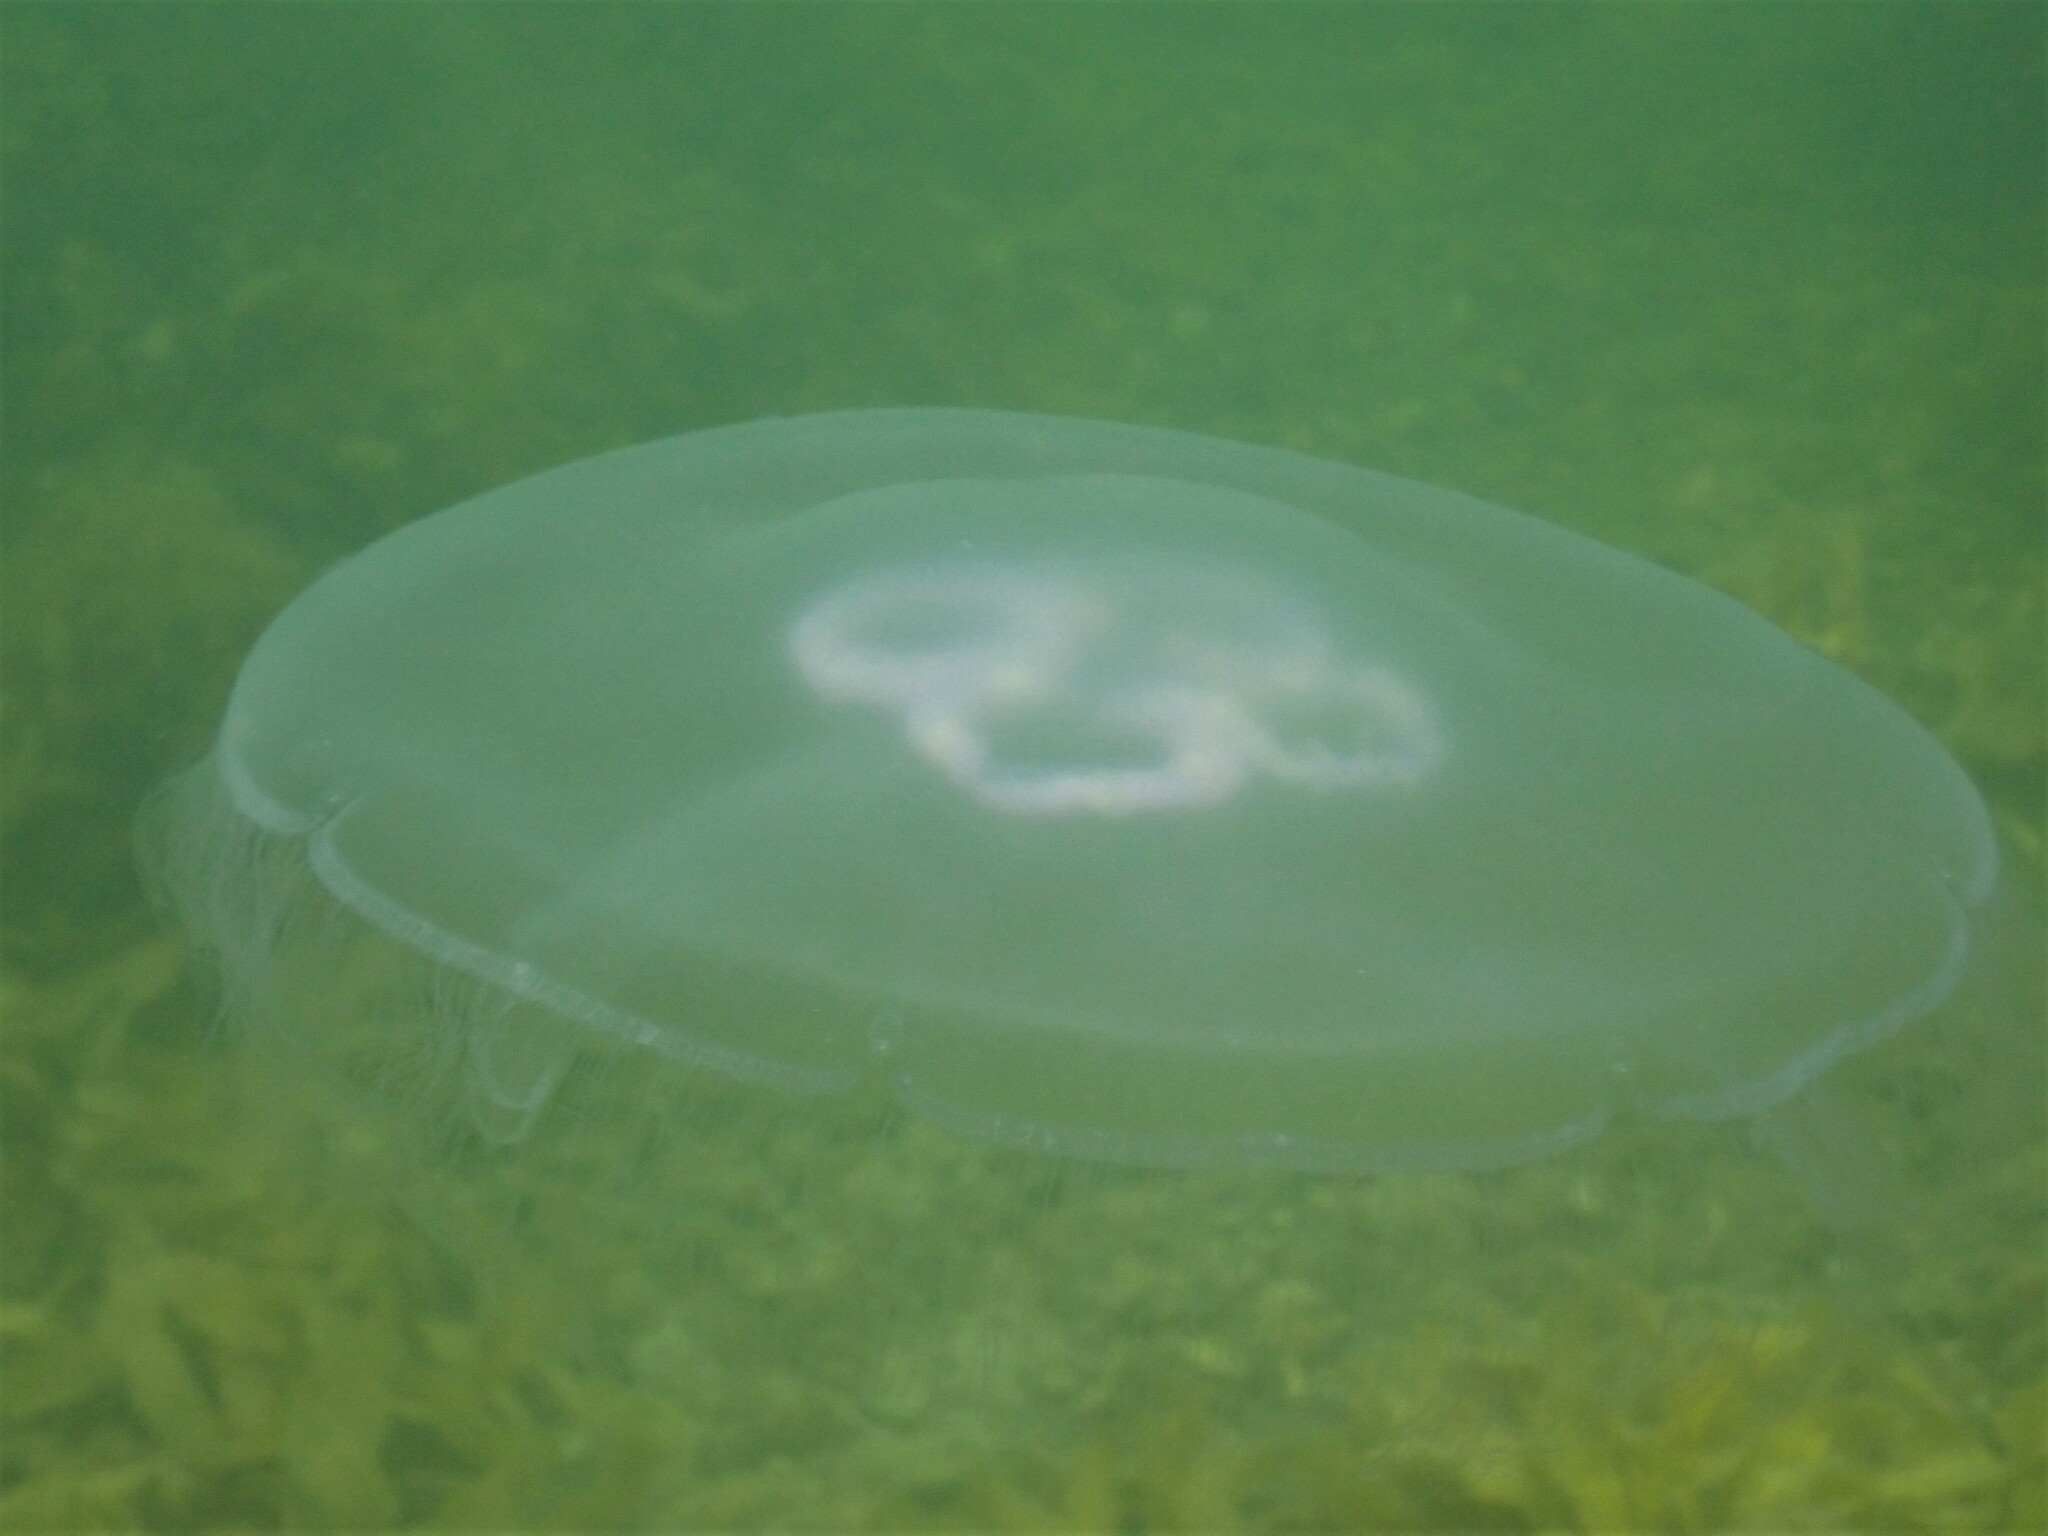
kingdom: Animalia
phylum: Cnidaria
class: Scyphozoa
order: Semaeostomeae
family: Ulmaridae
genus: Aurelia
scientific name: Aurelia aurita
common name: Moon jellyfish
